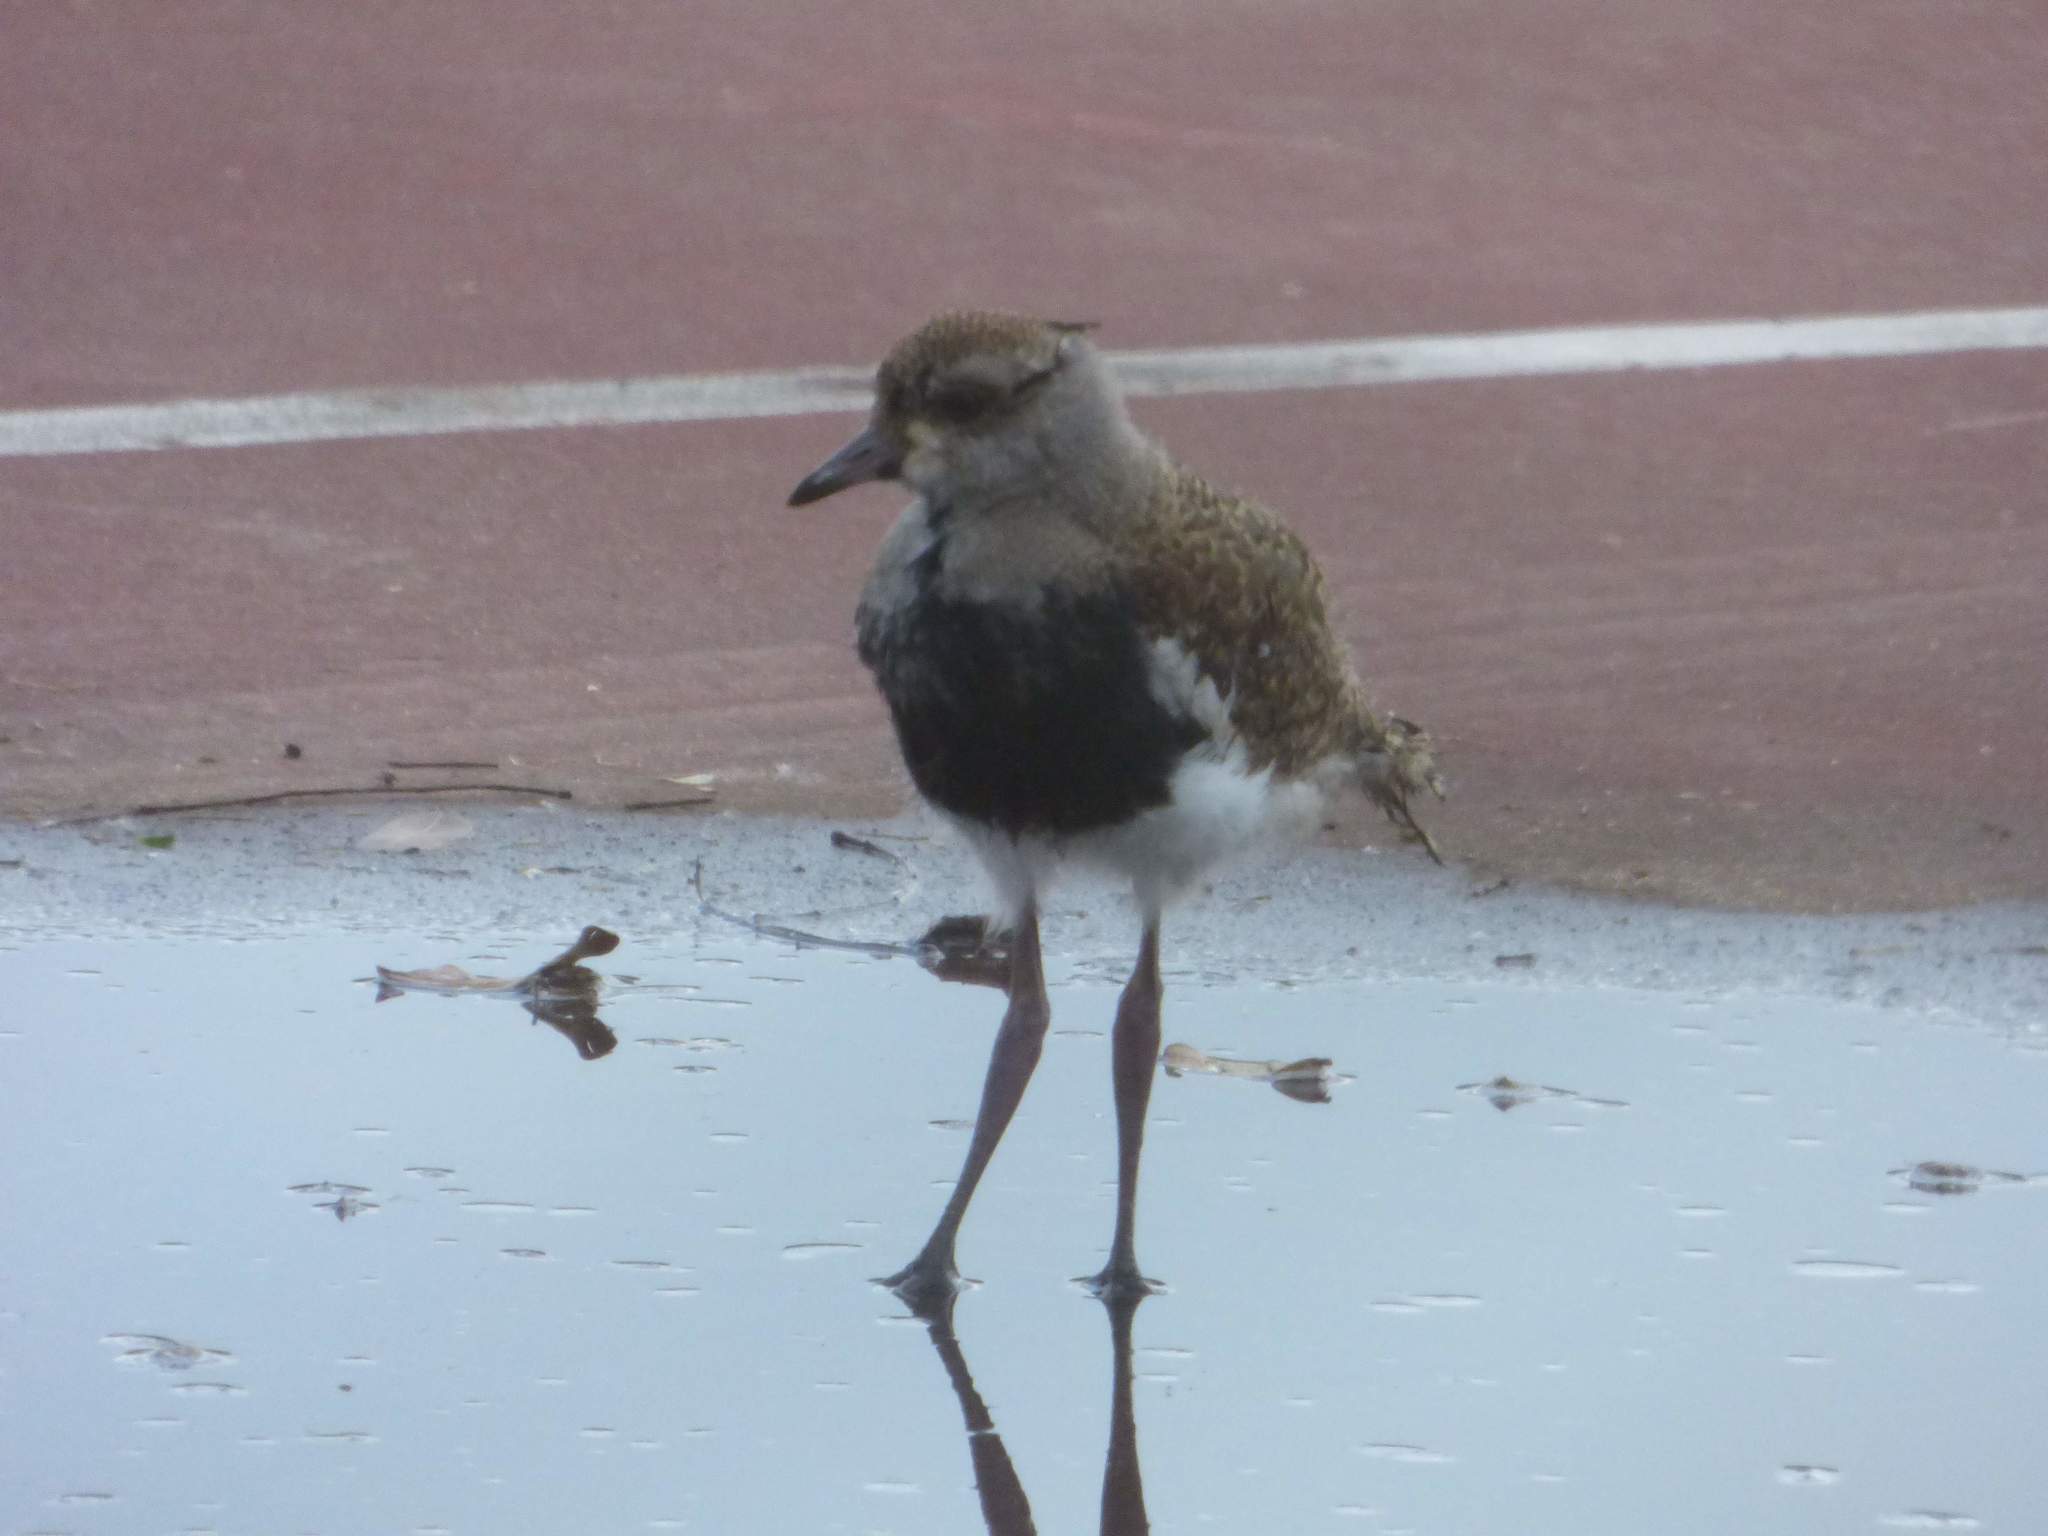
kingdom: Animalia
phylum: Chordata
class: Aves
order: Charadriiformes
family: Charadriidae
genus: Vanellus
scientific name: Vanellus chilensis
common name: Southern lapwing
